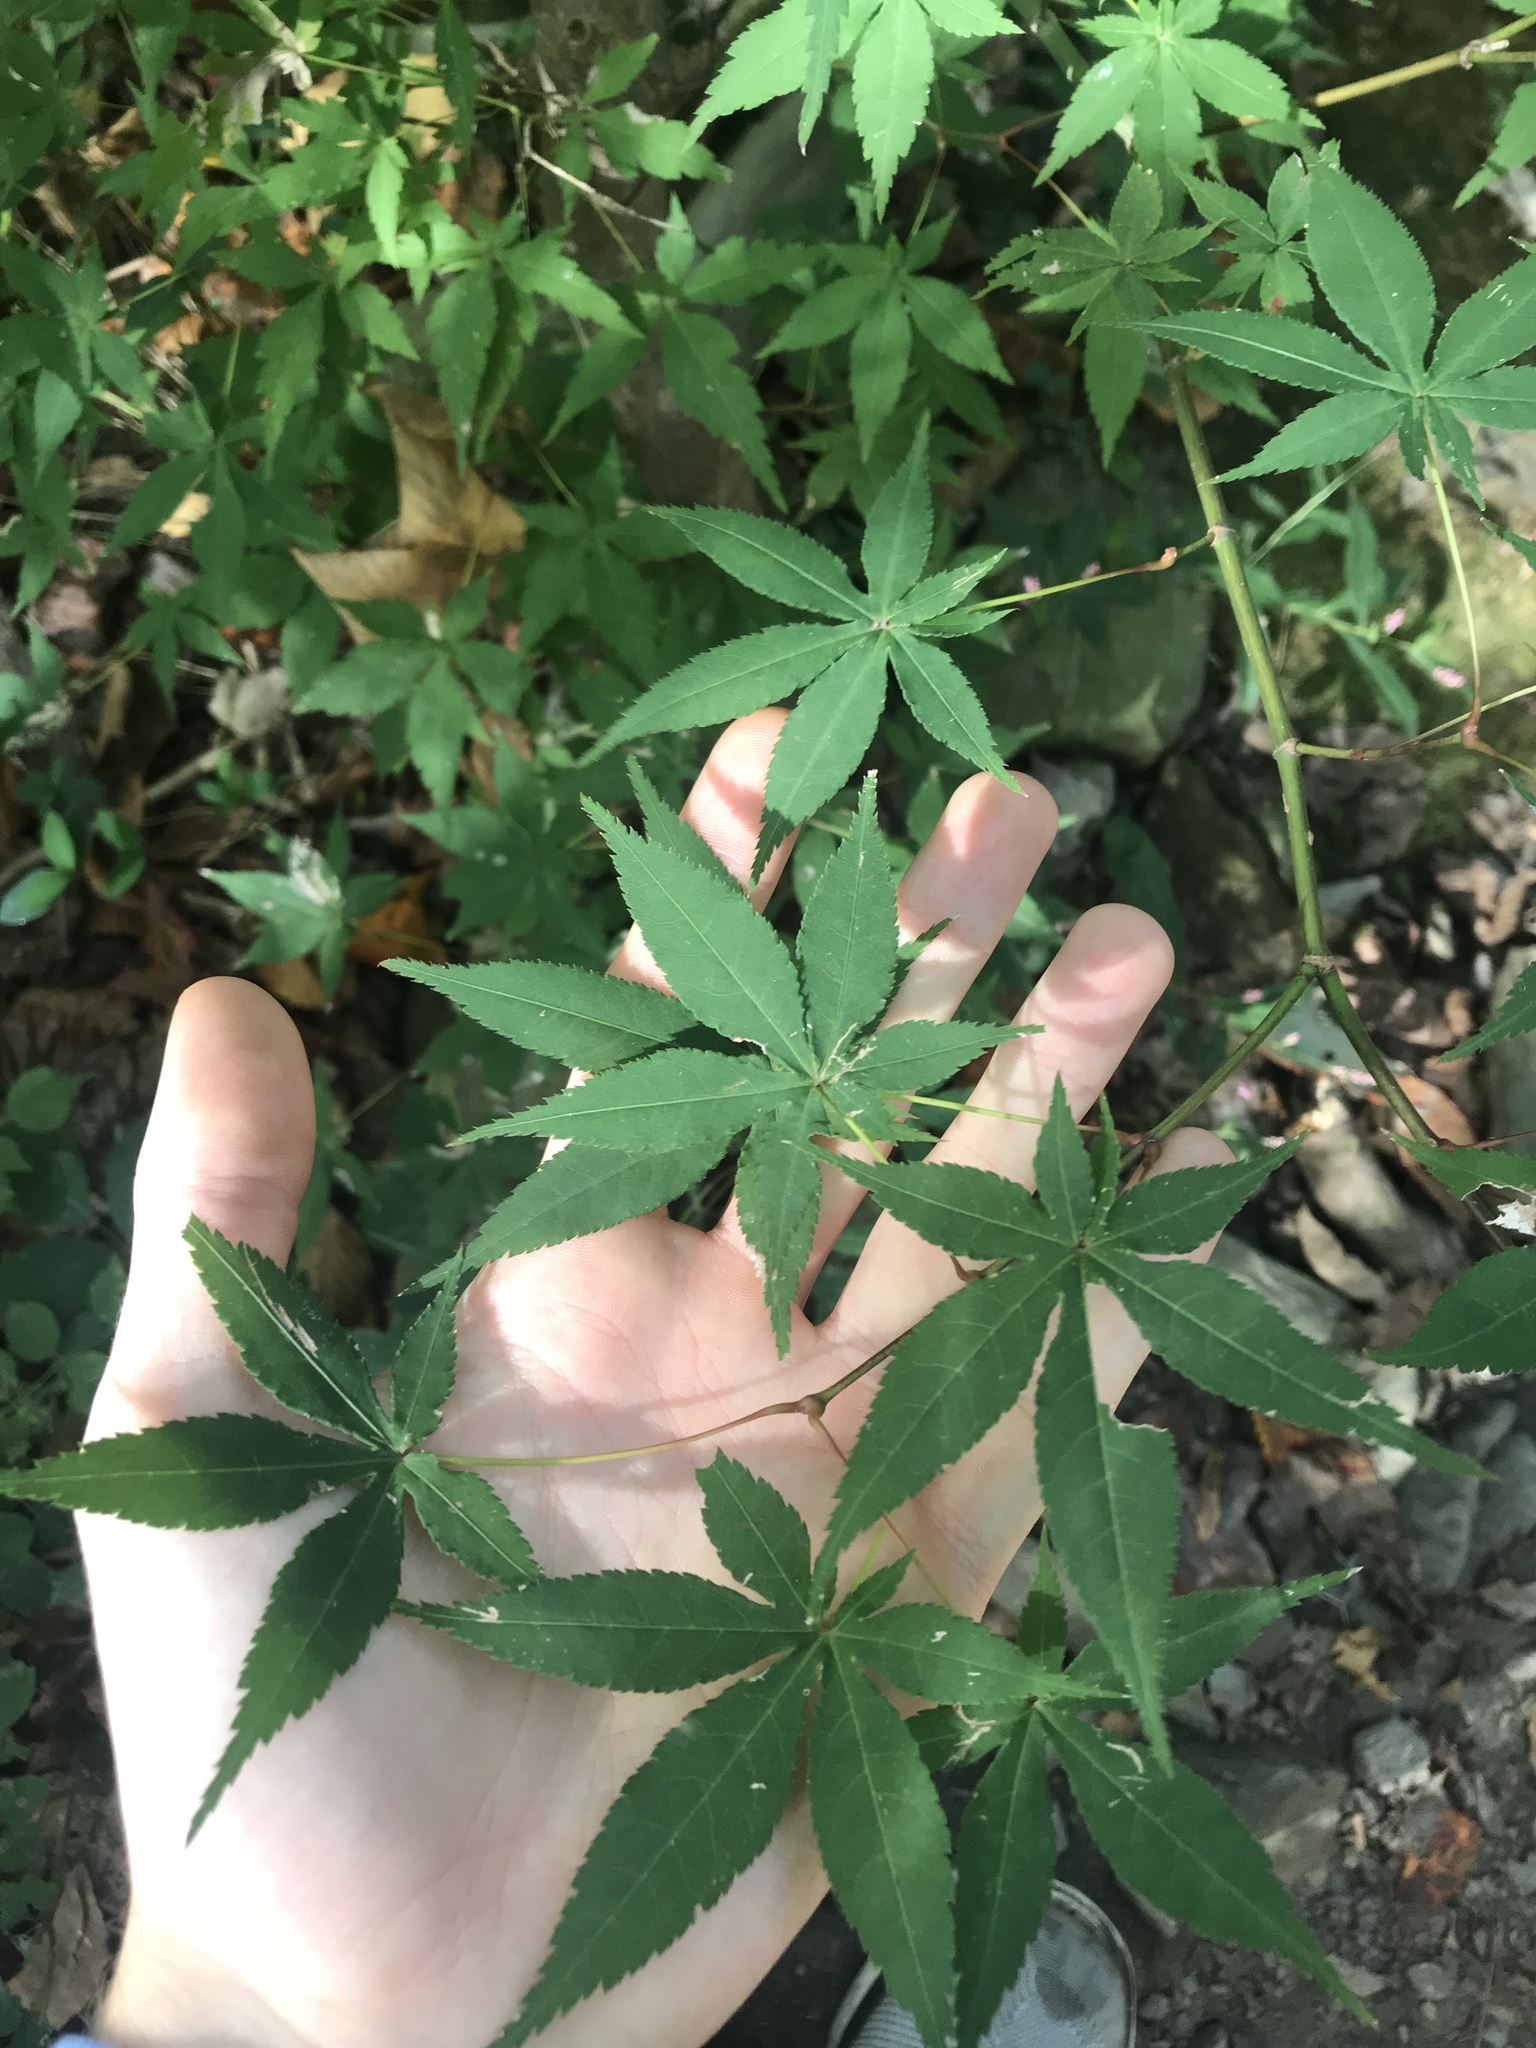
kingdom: Plantae
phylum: Tracheophyta
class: Magnoliopsida
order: Sapindales
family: Sapindaceae
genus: Acer
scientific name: Acer palmatum
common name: Japanese maple
